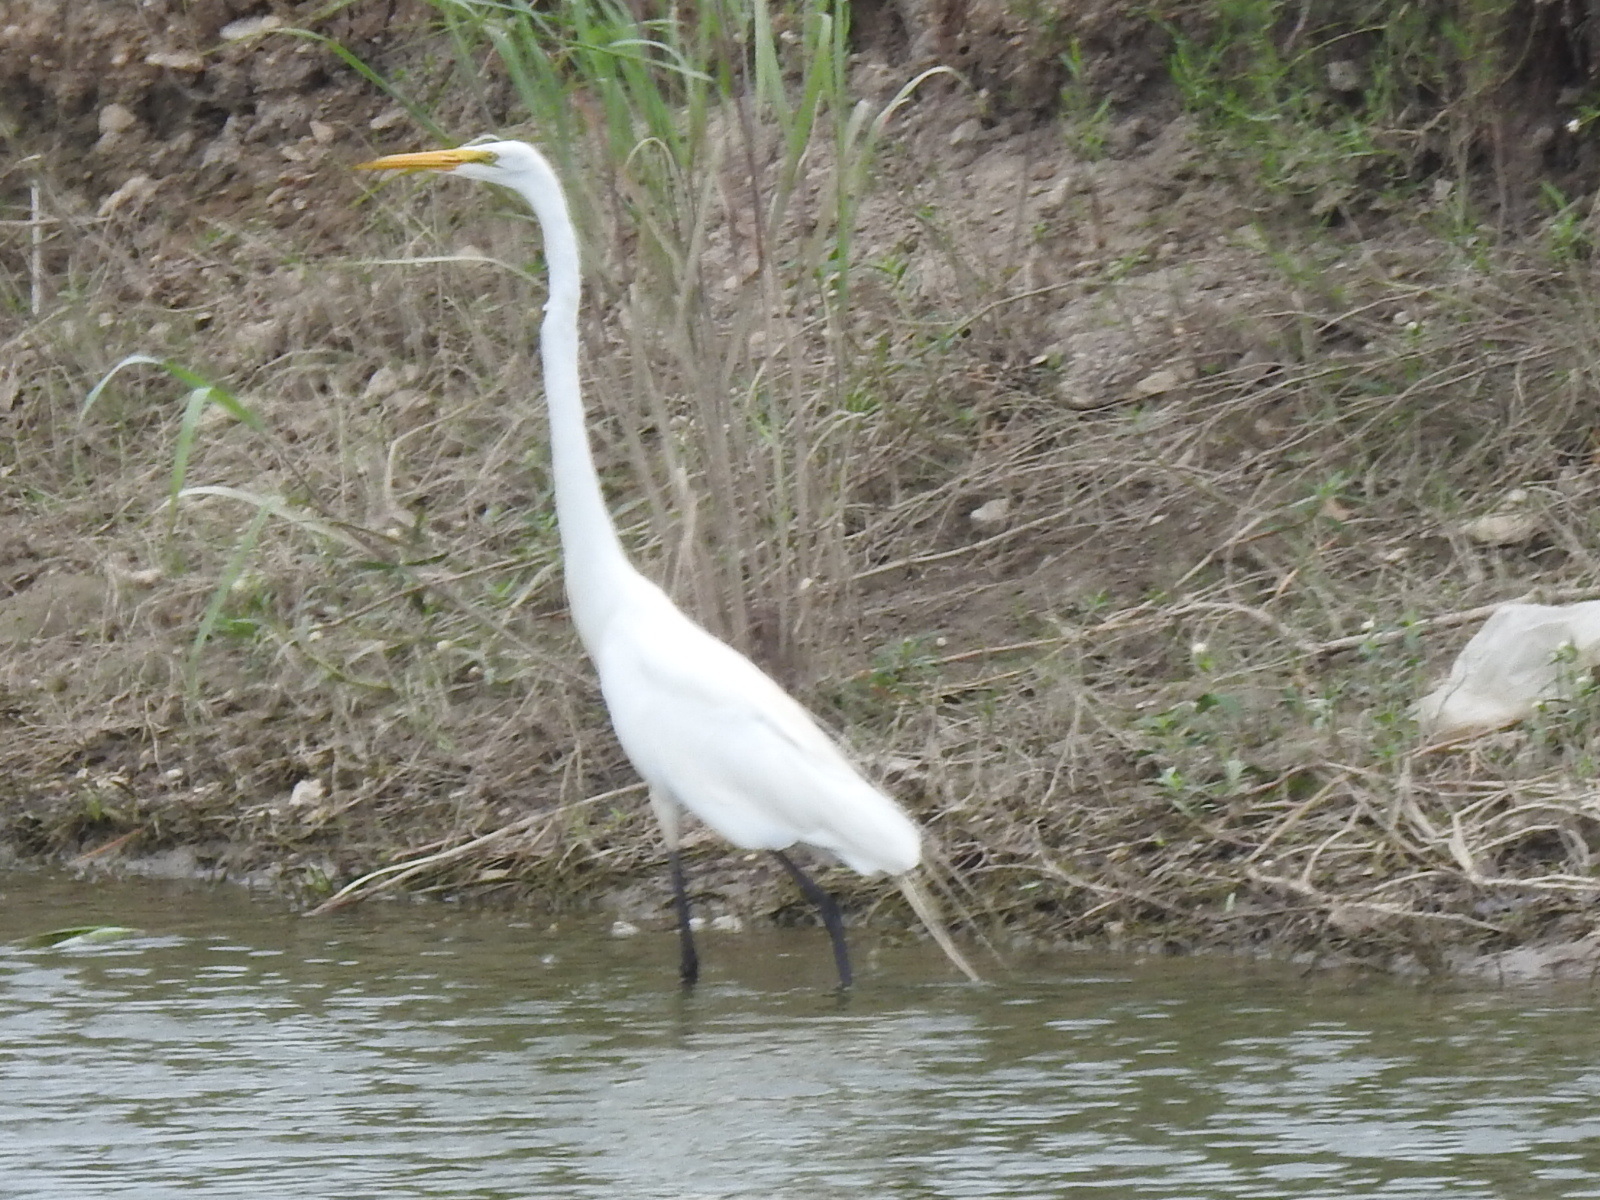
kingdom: Animalia
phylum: Chordata
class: Aves
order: Pelecaniformes
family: Ardeidae
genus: Ardea
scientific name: Ardea alba
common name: Great egret
